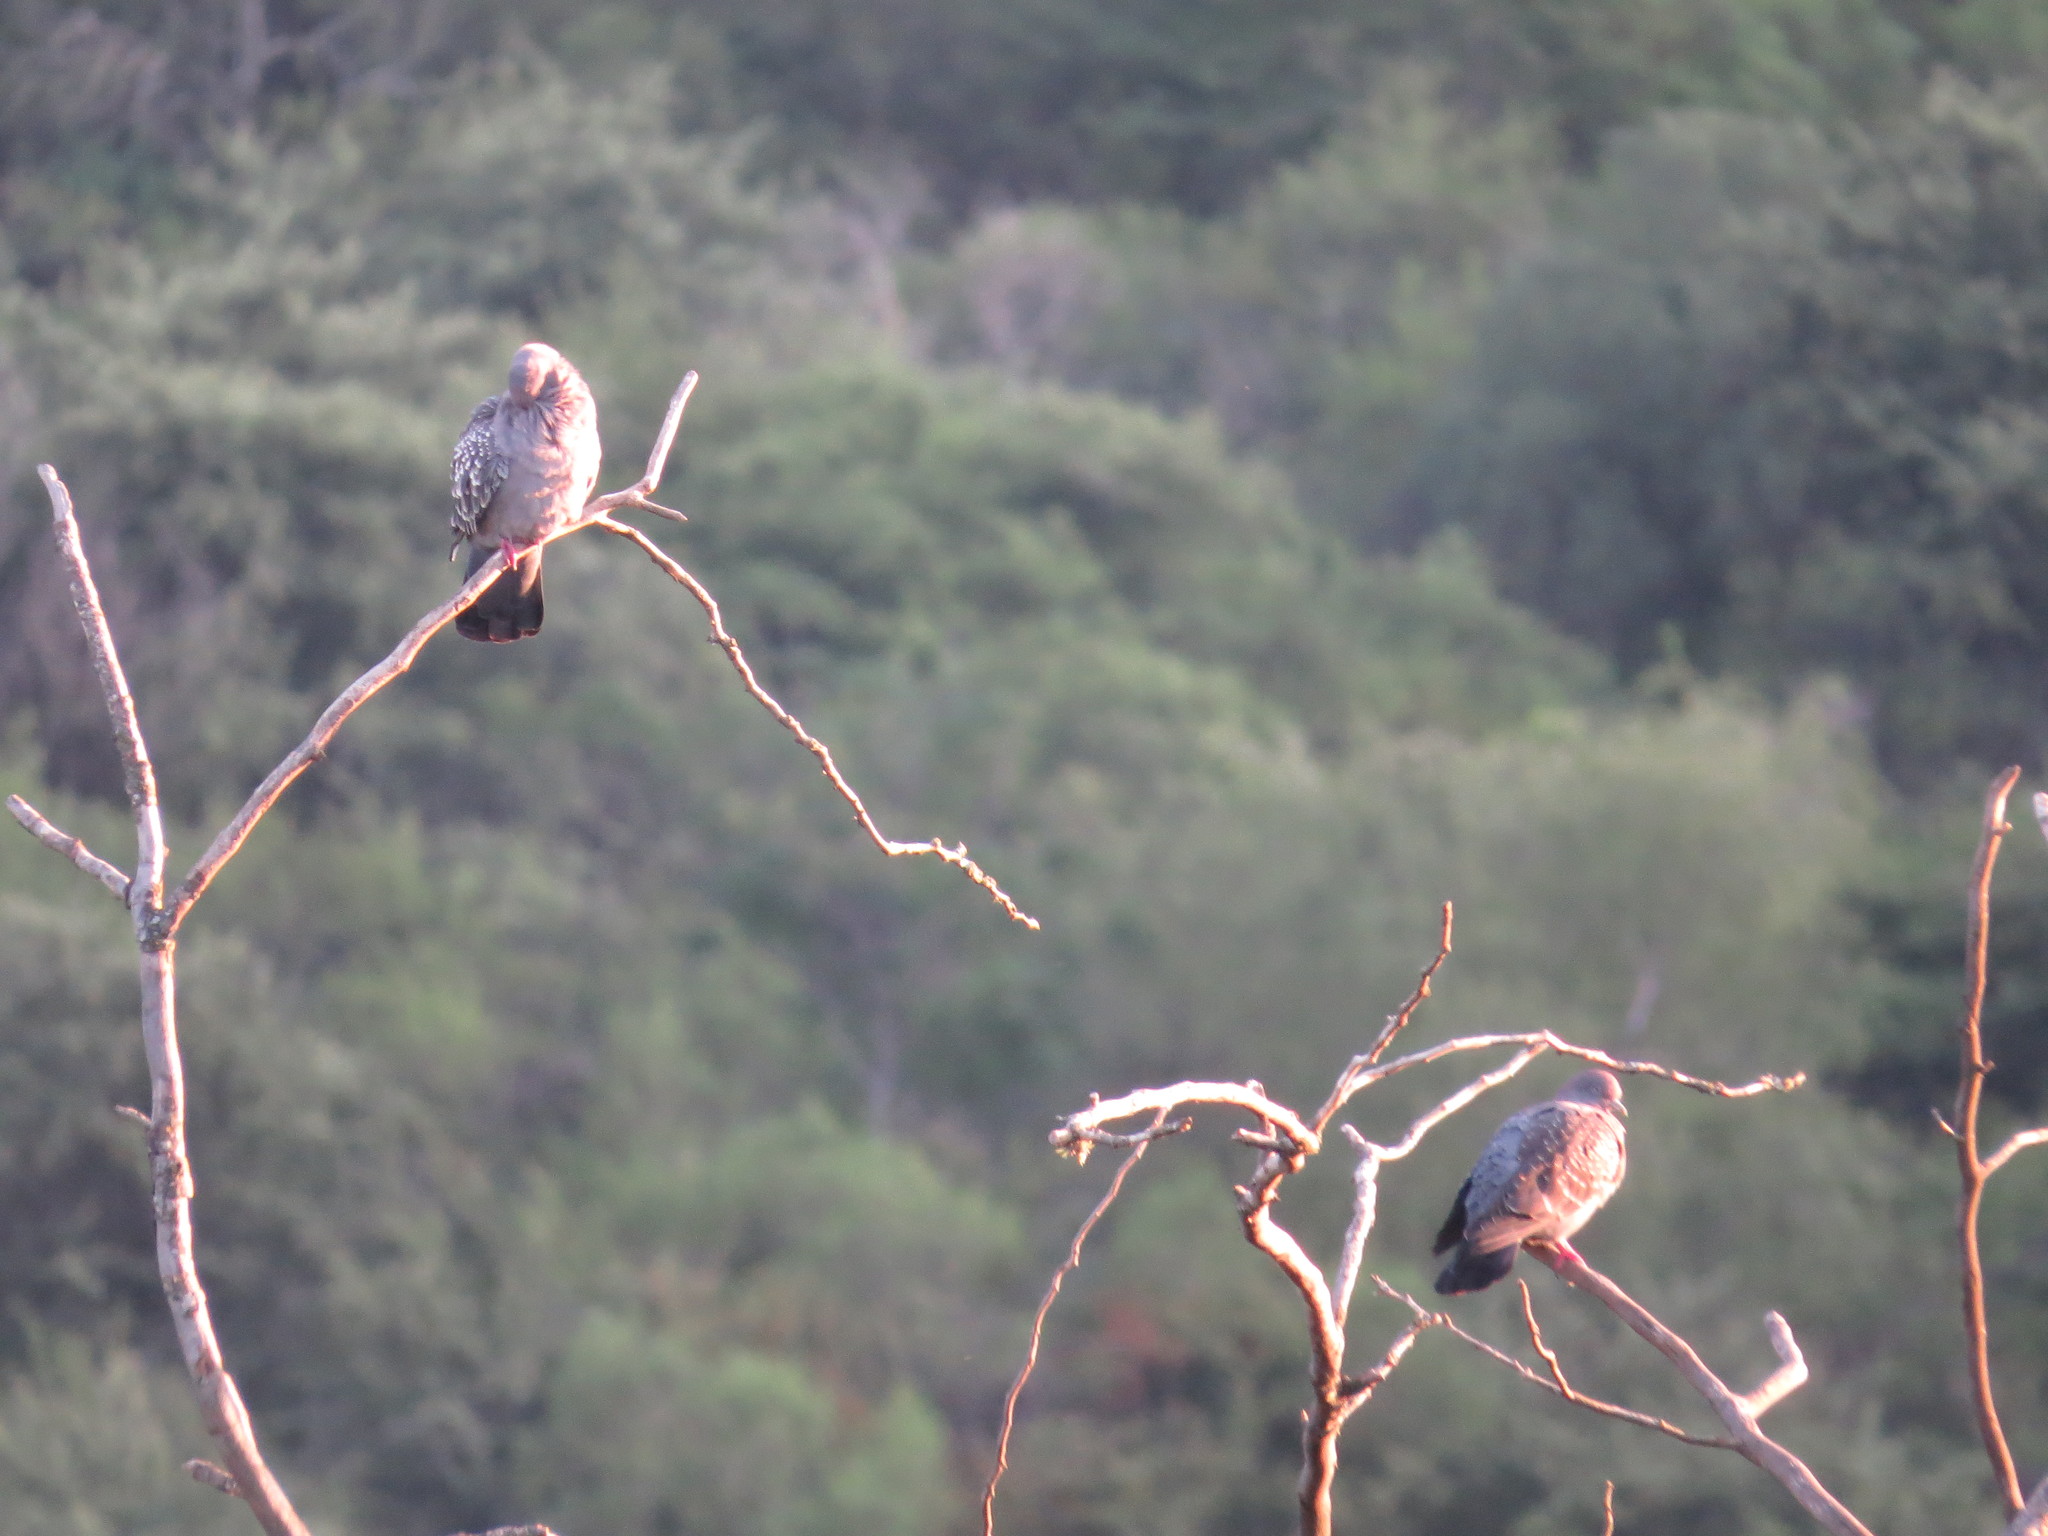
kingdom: Animalia
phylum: Chordata
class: Aves
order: Columbiformes
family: Columbidae
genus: Patagioenas
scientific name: Patagioenas maculosa
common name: Spot-winged pigeon
